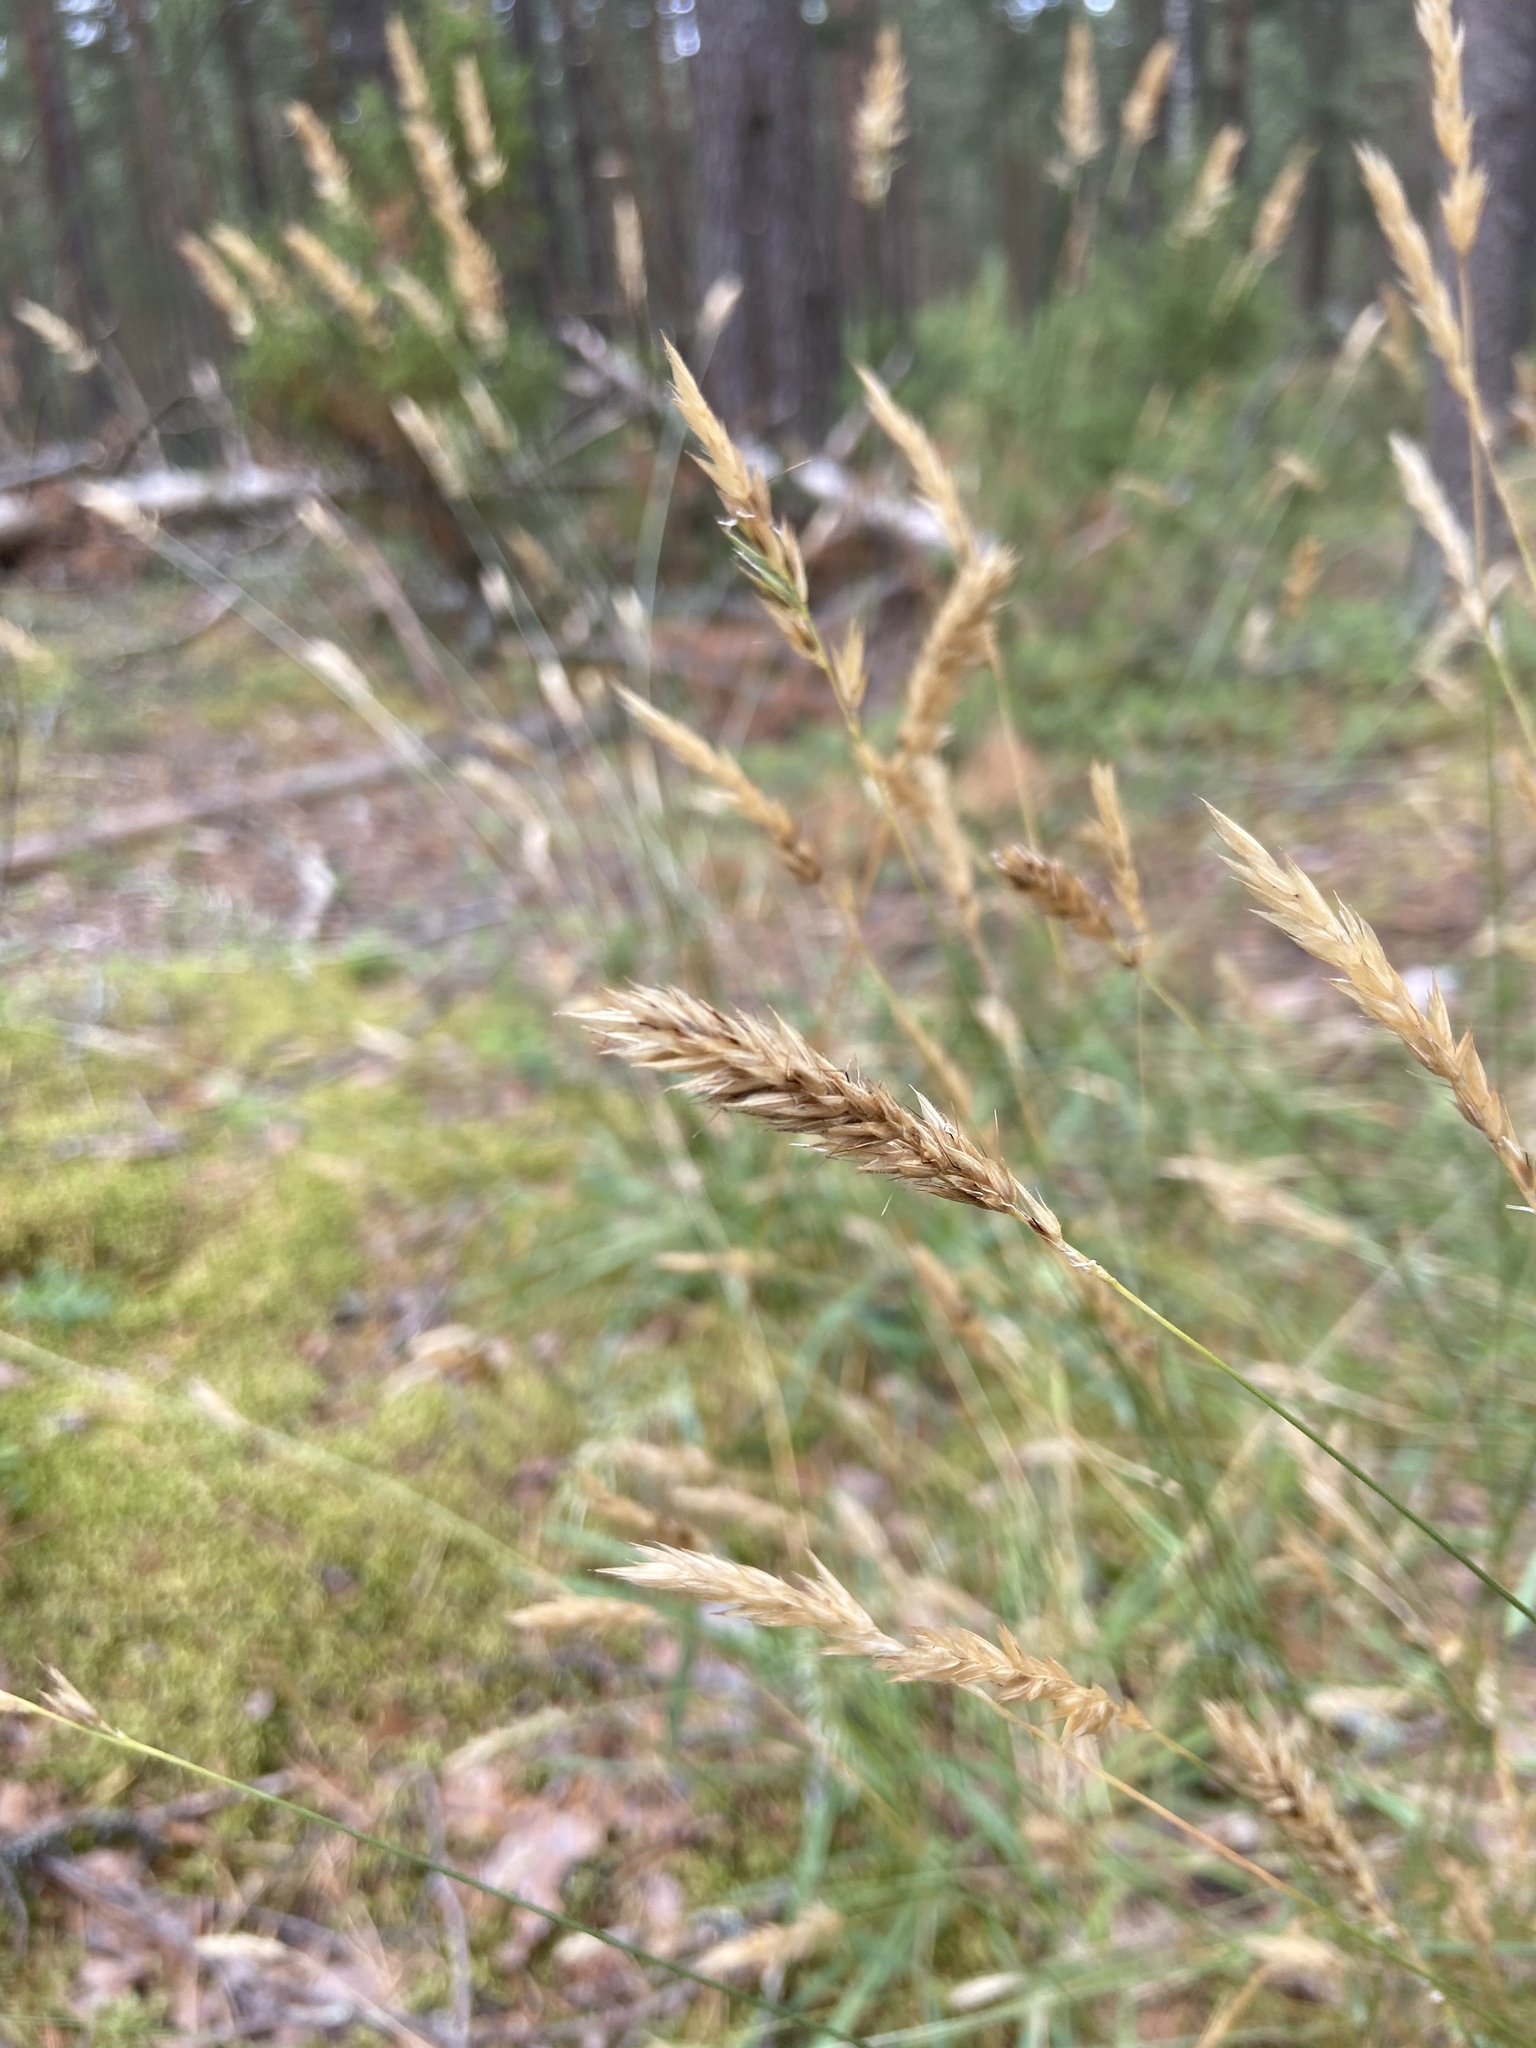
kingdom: Plantae
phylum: Tracheophyta
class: Liliopsida
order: Poales
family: Poaceae
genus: Anthoxanthum
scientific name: Anthoxanthum odoratum
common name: Sweet vernalgrass
